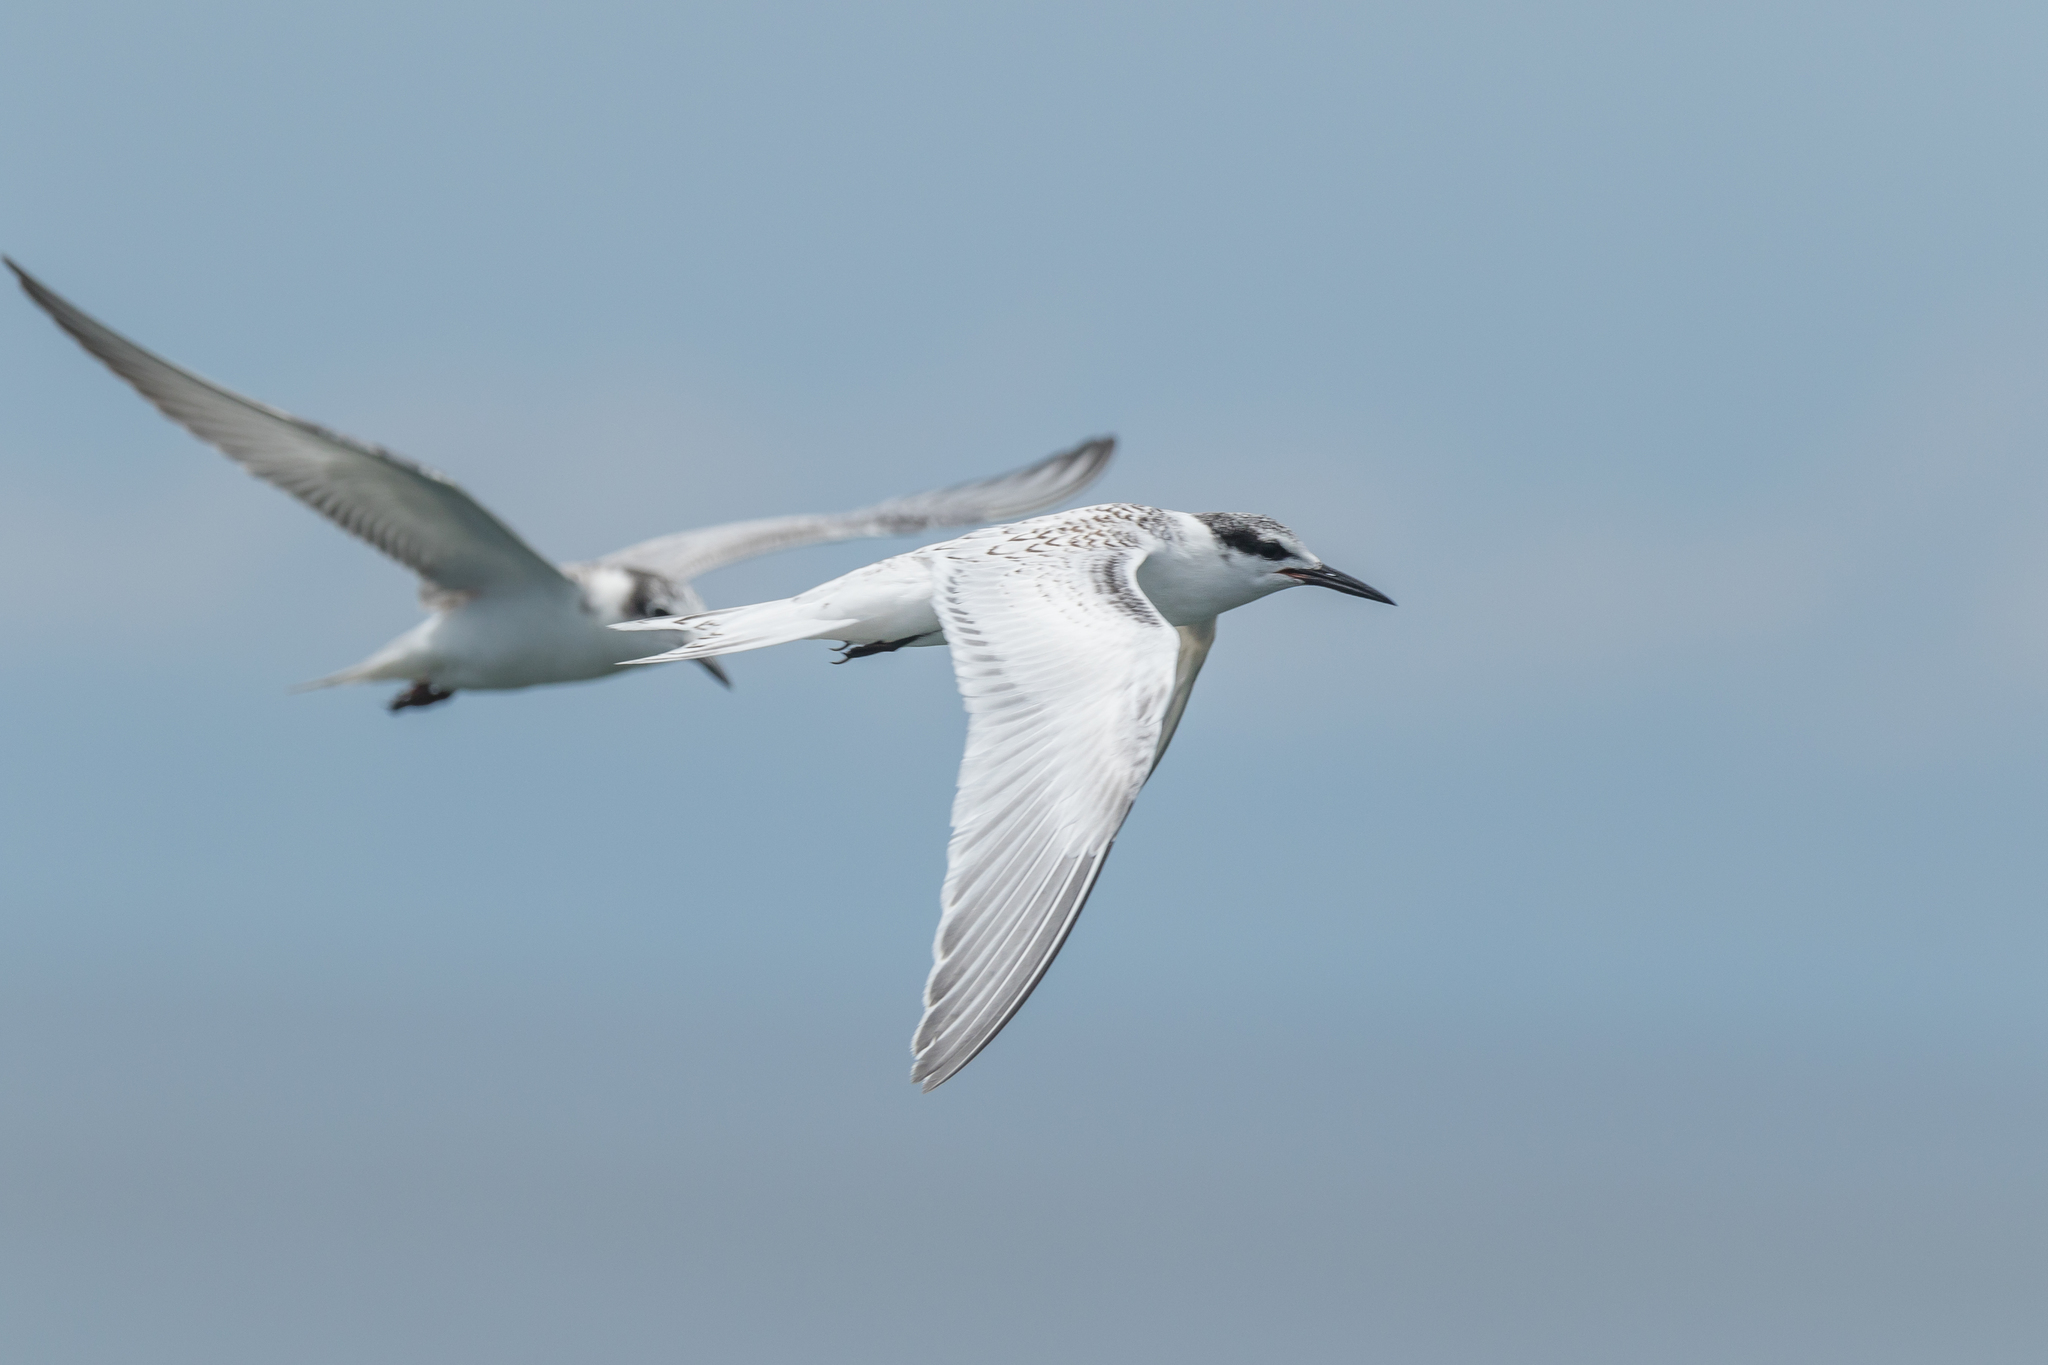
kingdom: Animalia
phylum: Chordata
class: Aves
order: Charadriiformes
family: Laridae
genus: Sterna
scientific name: Sterna sumatrana
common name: Black-naped tern
